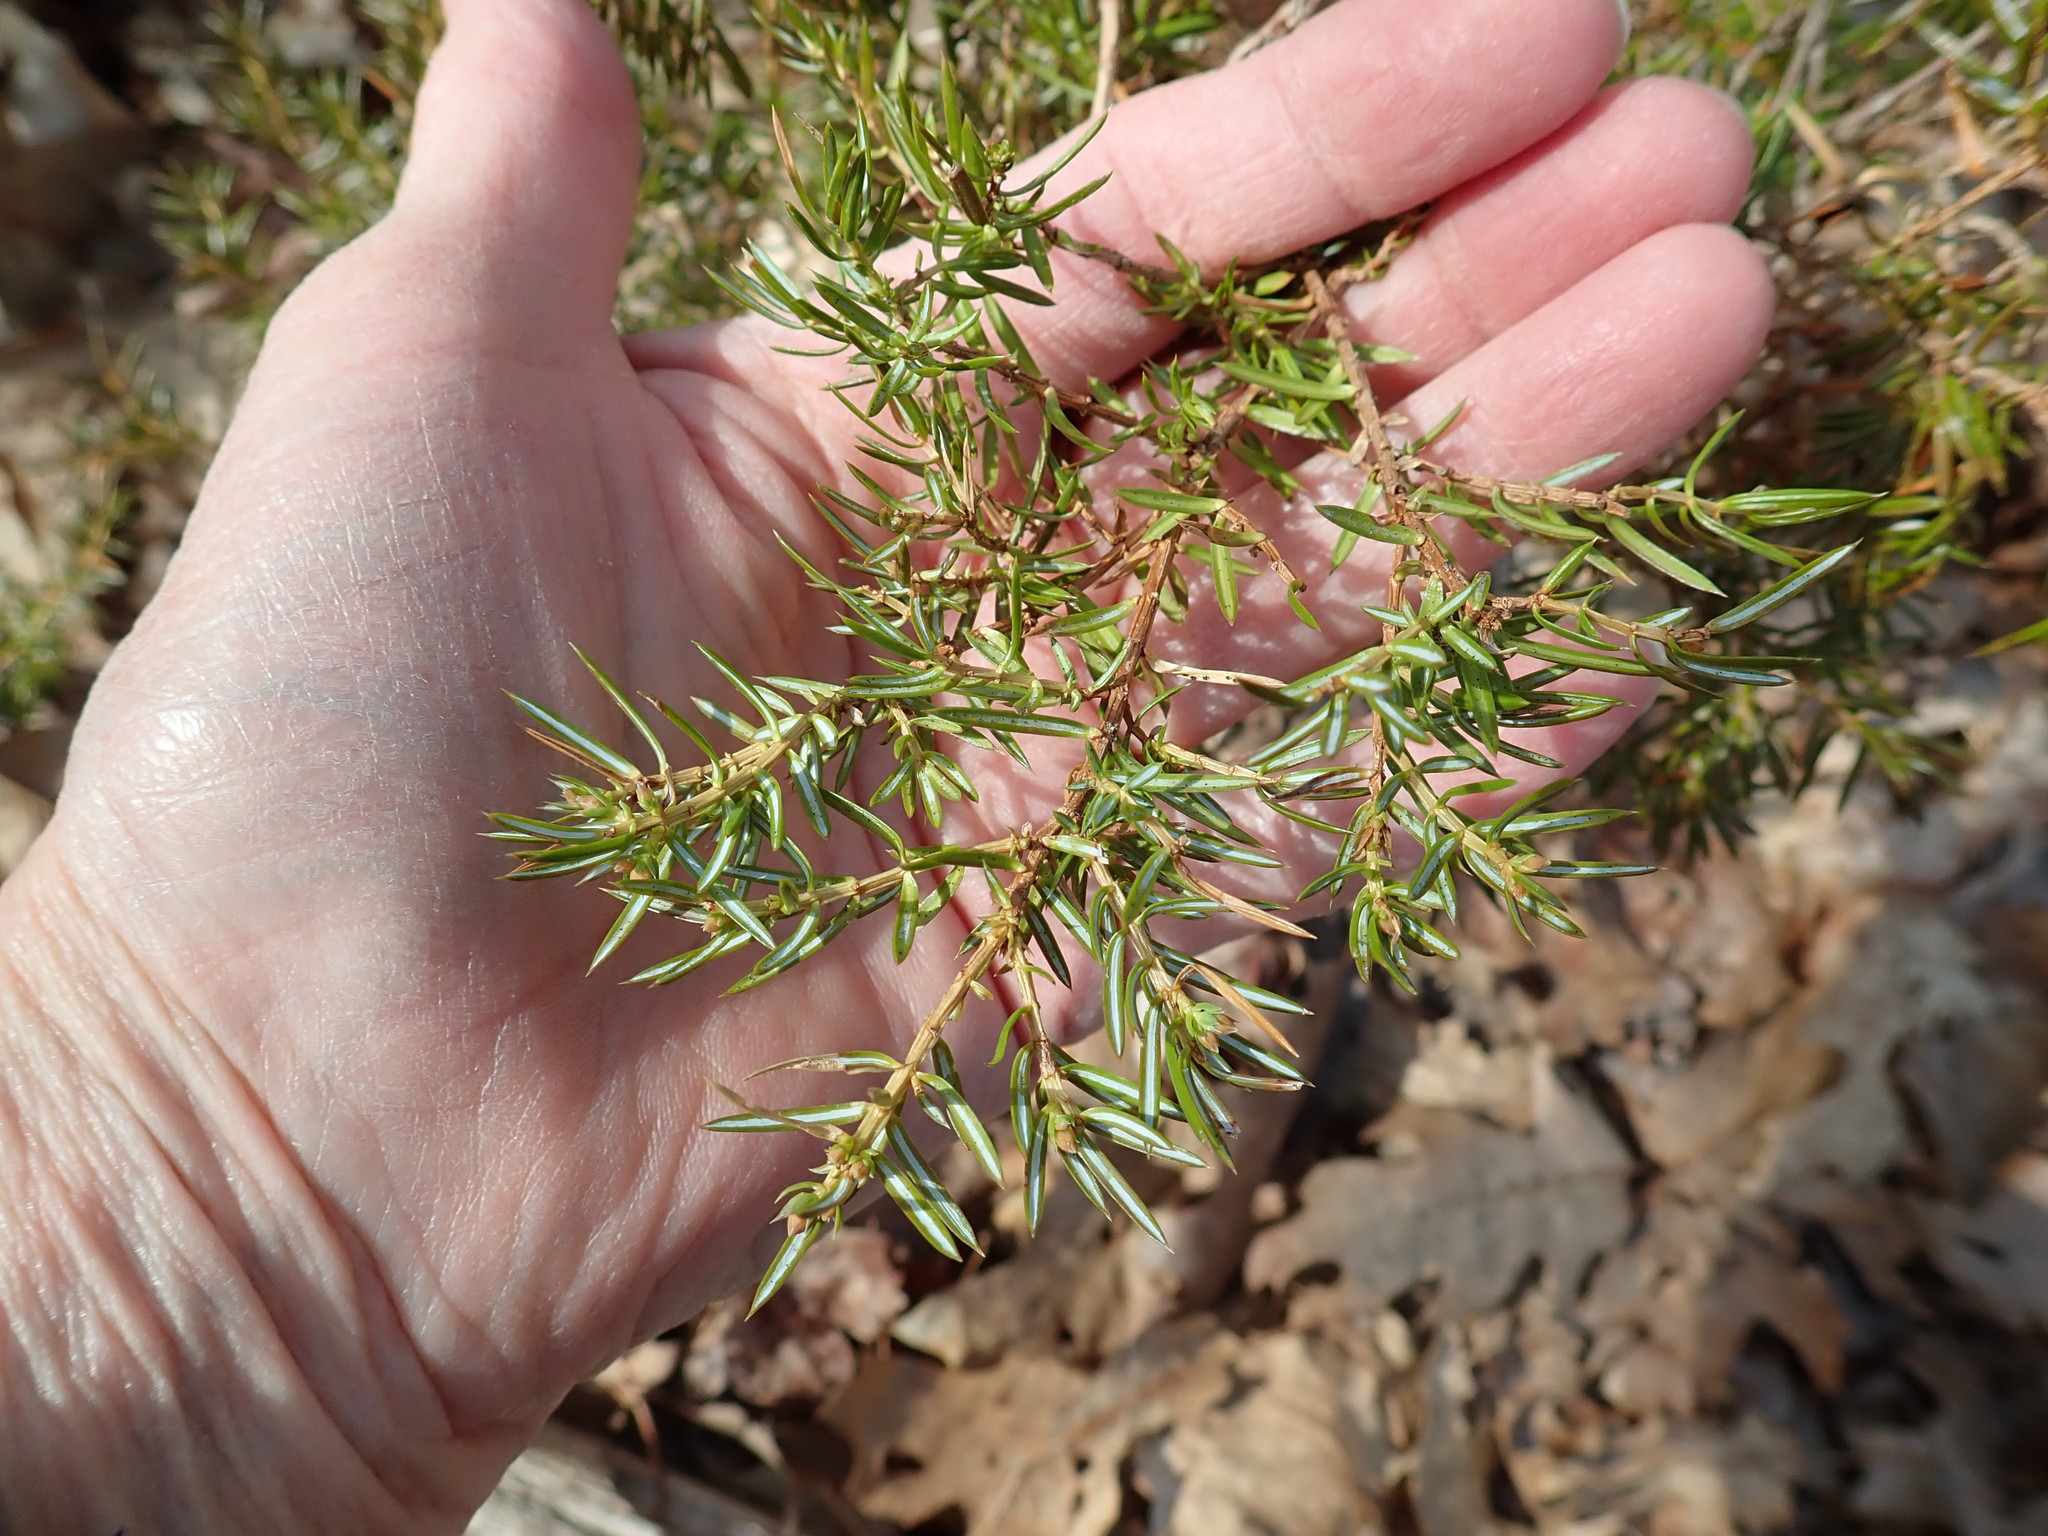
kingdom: Plantae
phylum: Tracheophyta
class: Pinopsida
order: Pinales
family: Cupressaceae
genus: Juniperus
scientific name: Juniperus communis
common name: Common juniper
